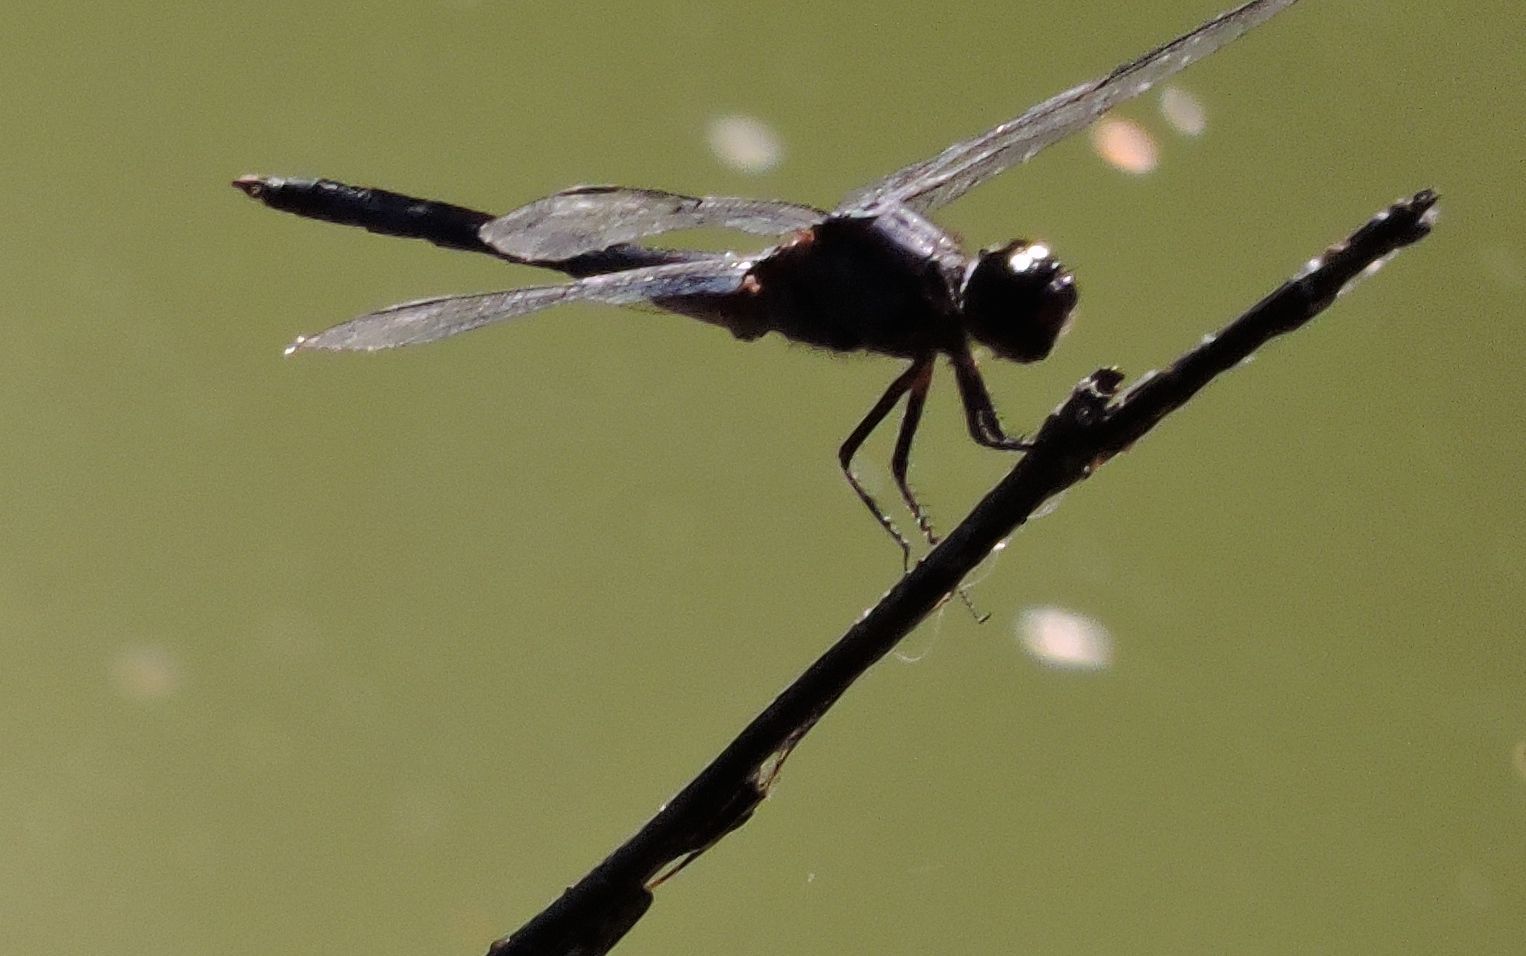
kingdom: Animalia
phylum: Arthropoda
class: Insecta
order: Odonata
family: Libellulidae
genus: Libellula
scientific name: Libellula incesta
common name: Slaty skimmer
